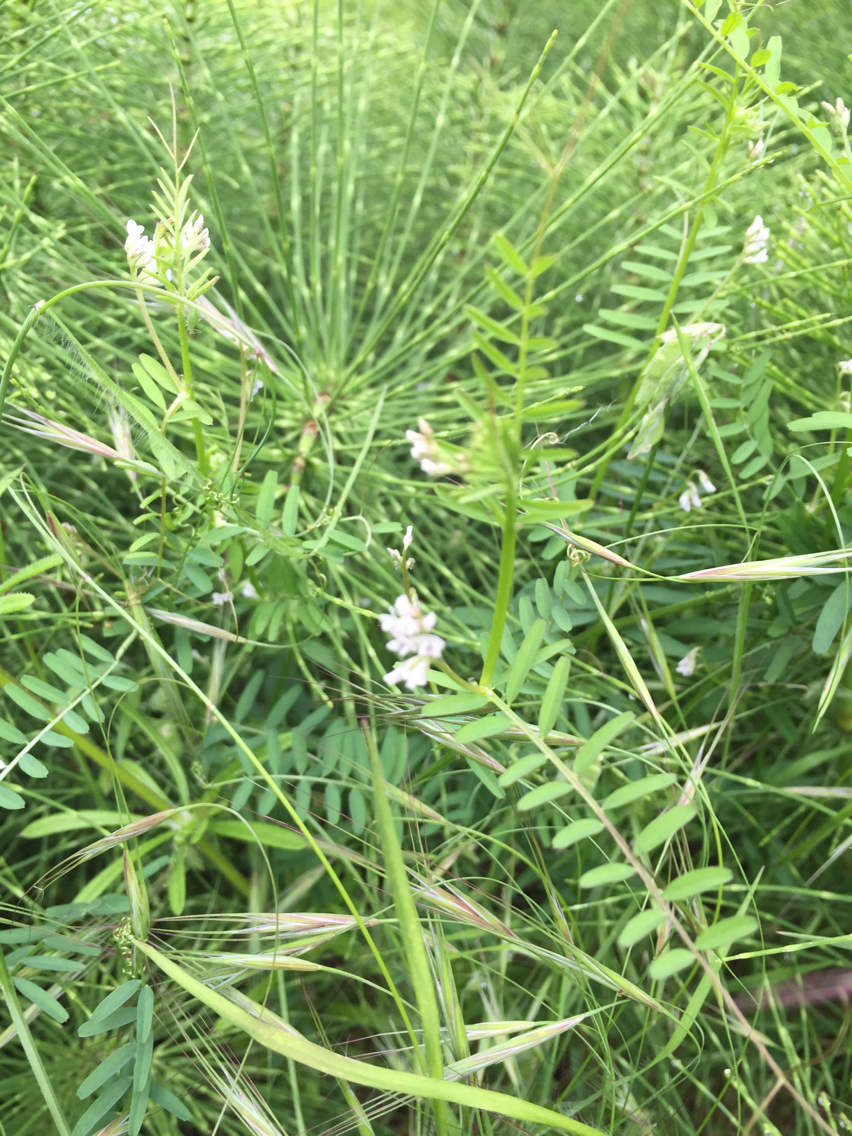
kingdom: Plantae
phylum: Tracheophyta
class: Magnoliopsida
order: Fabales
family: Fabaceae
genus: Vicia
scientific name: Vicia hirsuta
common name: Tiny vetch
